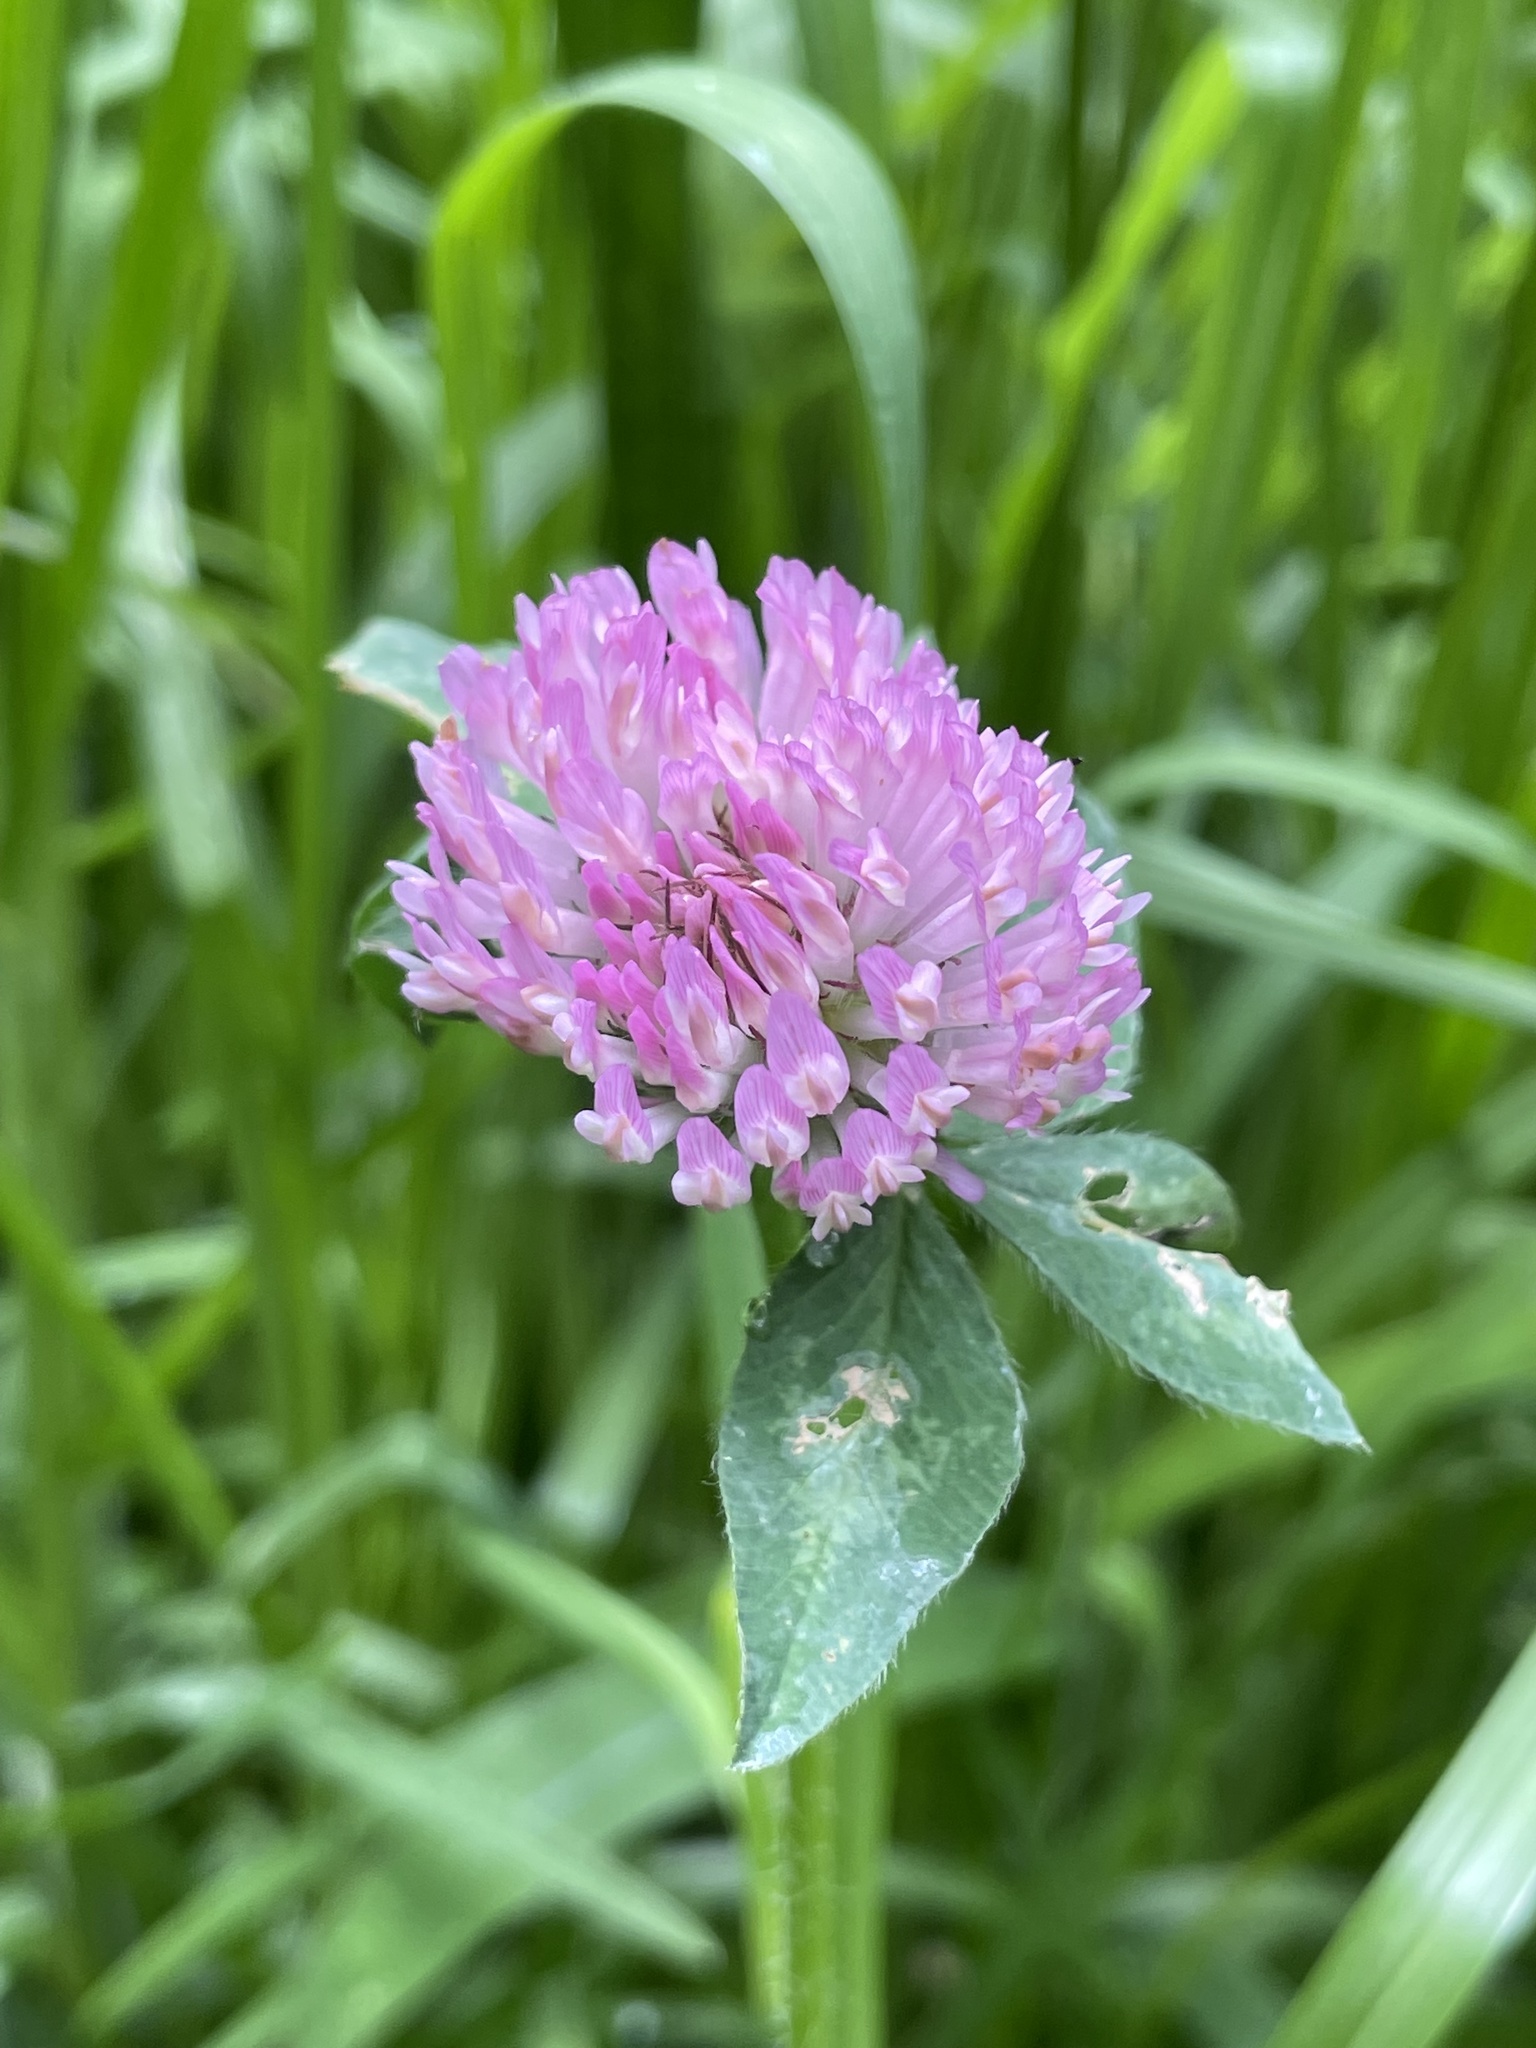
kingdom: Plantae
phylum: Tracheophyta
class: Magnoliopsida
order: Fabales
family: Fabaceae
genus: Trifolium
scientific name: Trifolium pratense
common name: Red clover
